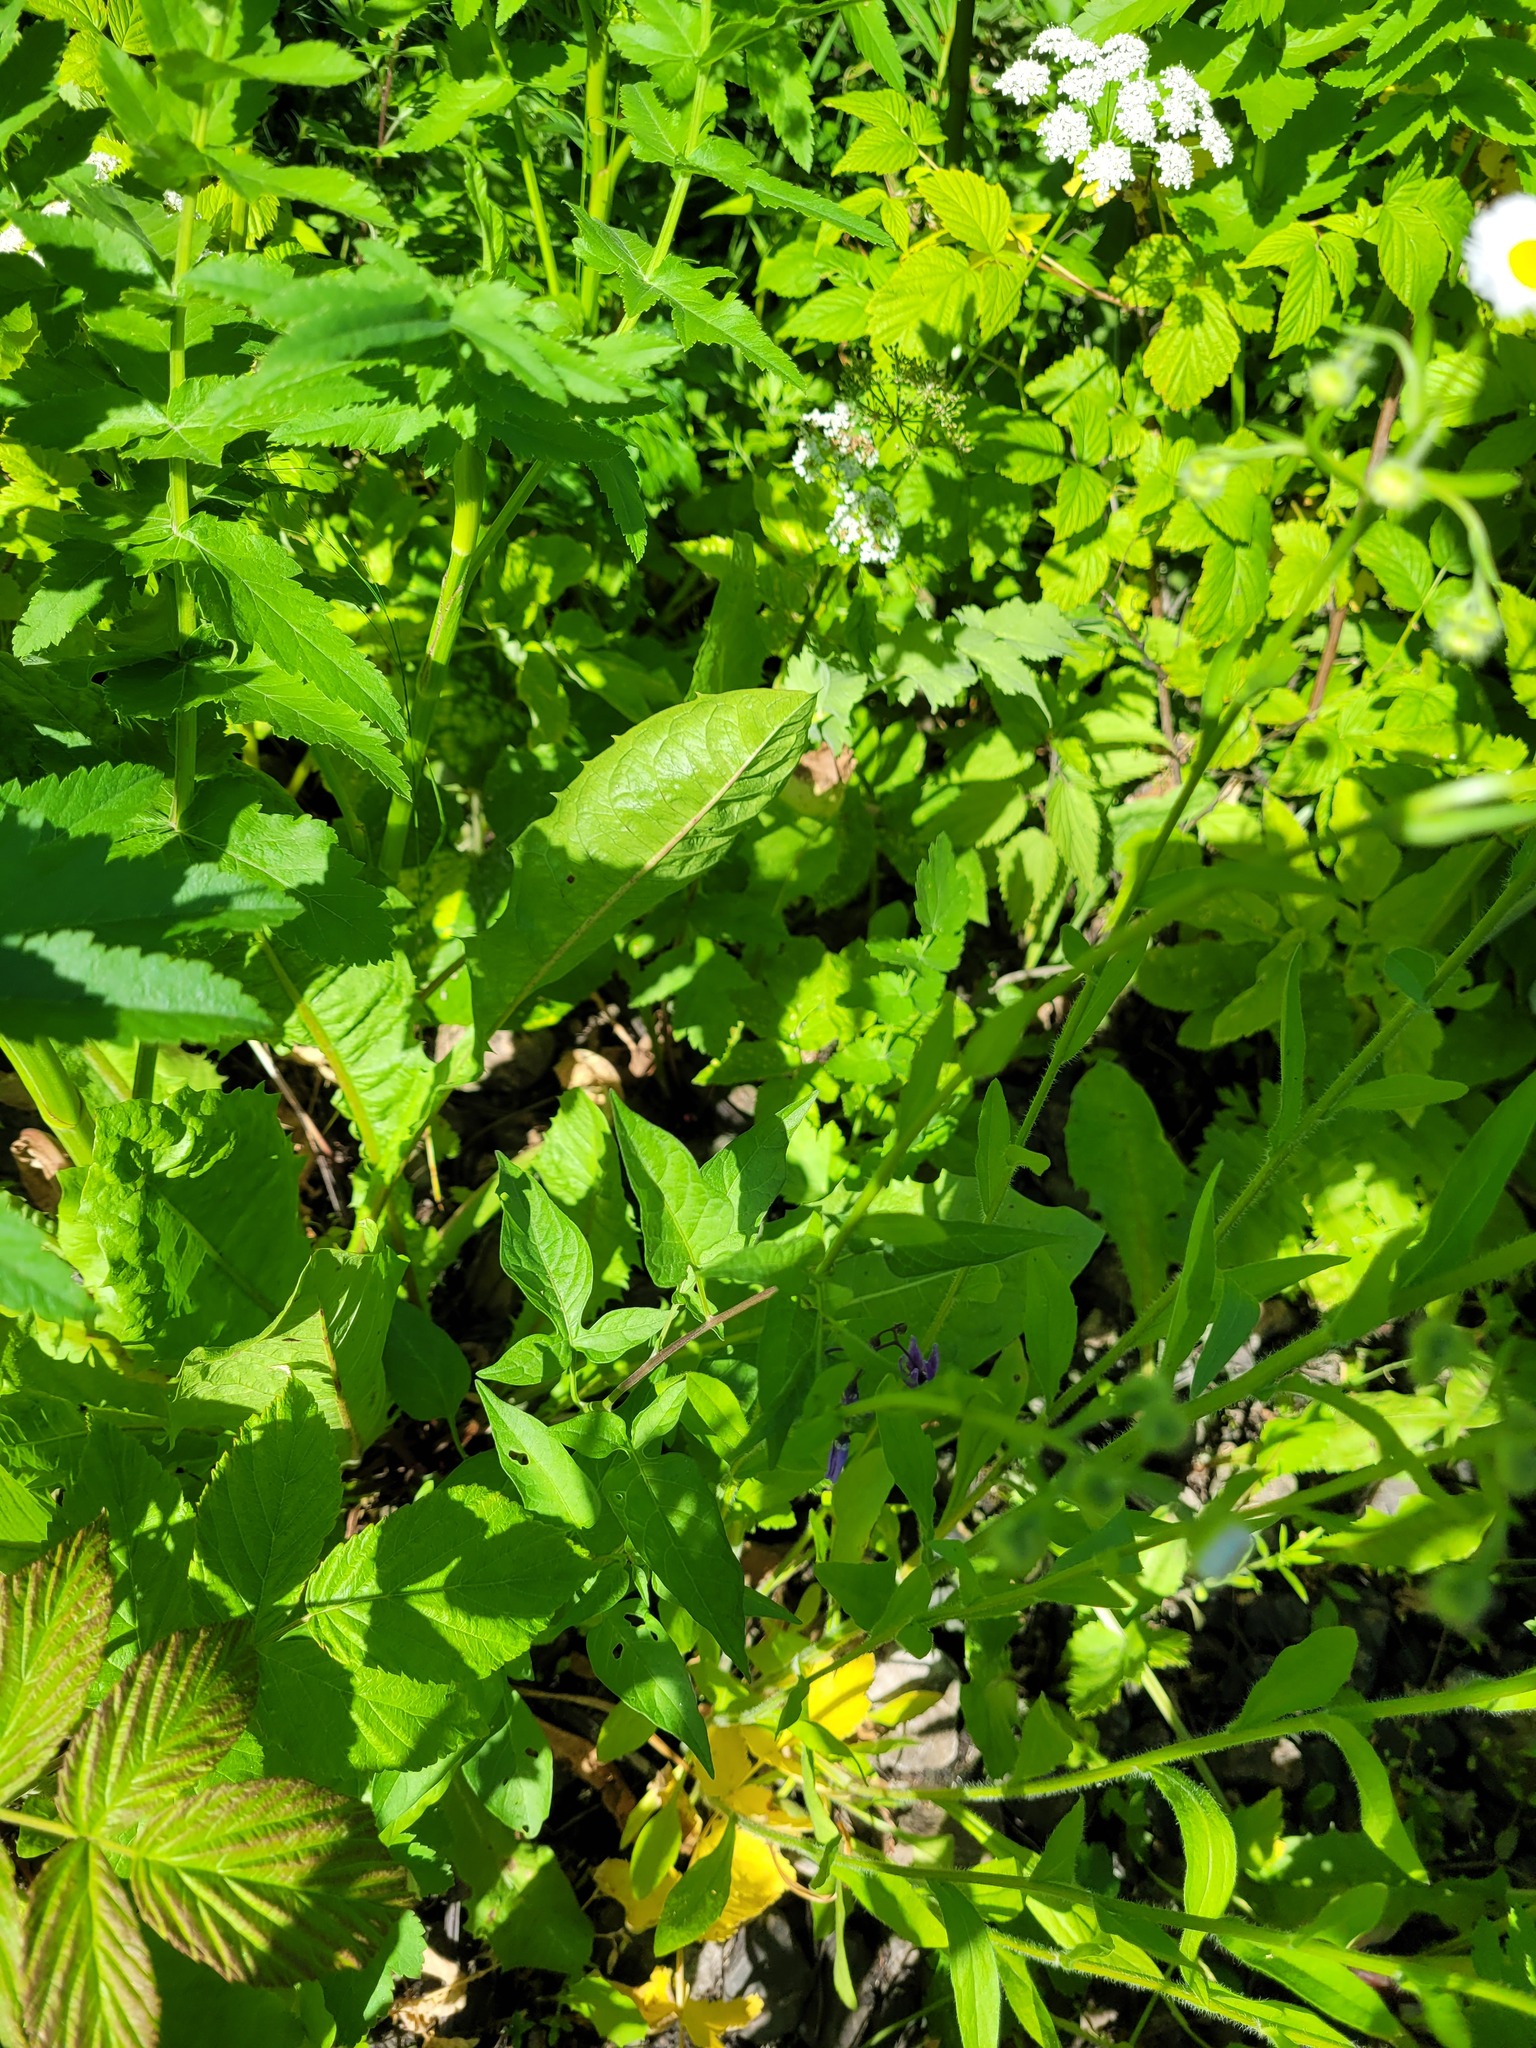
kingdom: Plantae
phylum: Tracheophyta
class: Magnoliopsida
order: Solanales
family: Solanaceae
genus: Solanum
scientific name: Solanum dulcamara
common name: Climbing nightshade
